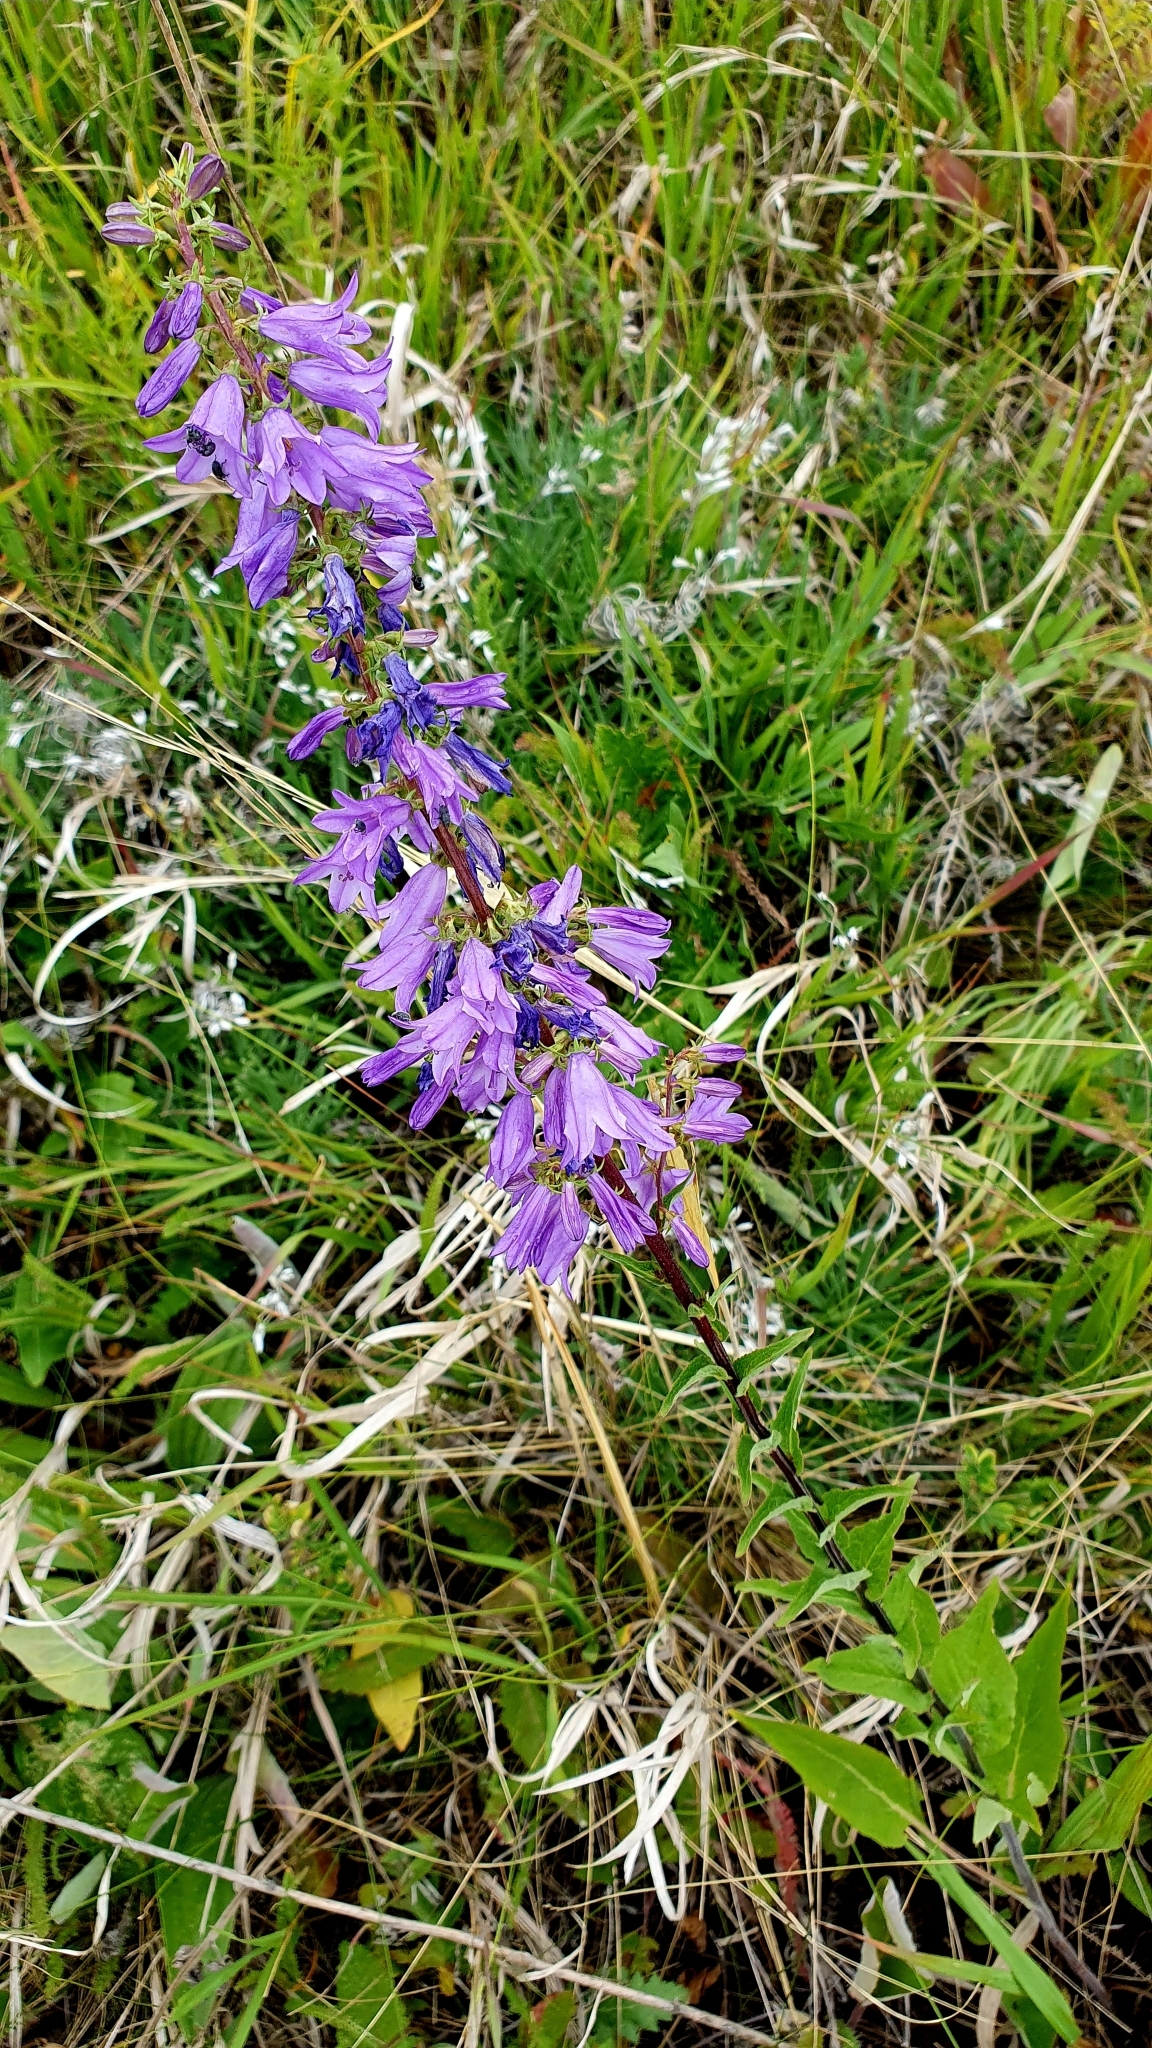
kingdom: Plantae
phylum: Tracheophyta
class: Magnoliopsida
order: Asterales
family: Campanulaceae
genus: Campanula
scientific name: Campanula bononiensis
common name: Pale bellflower
